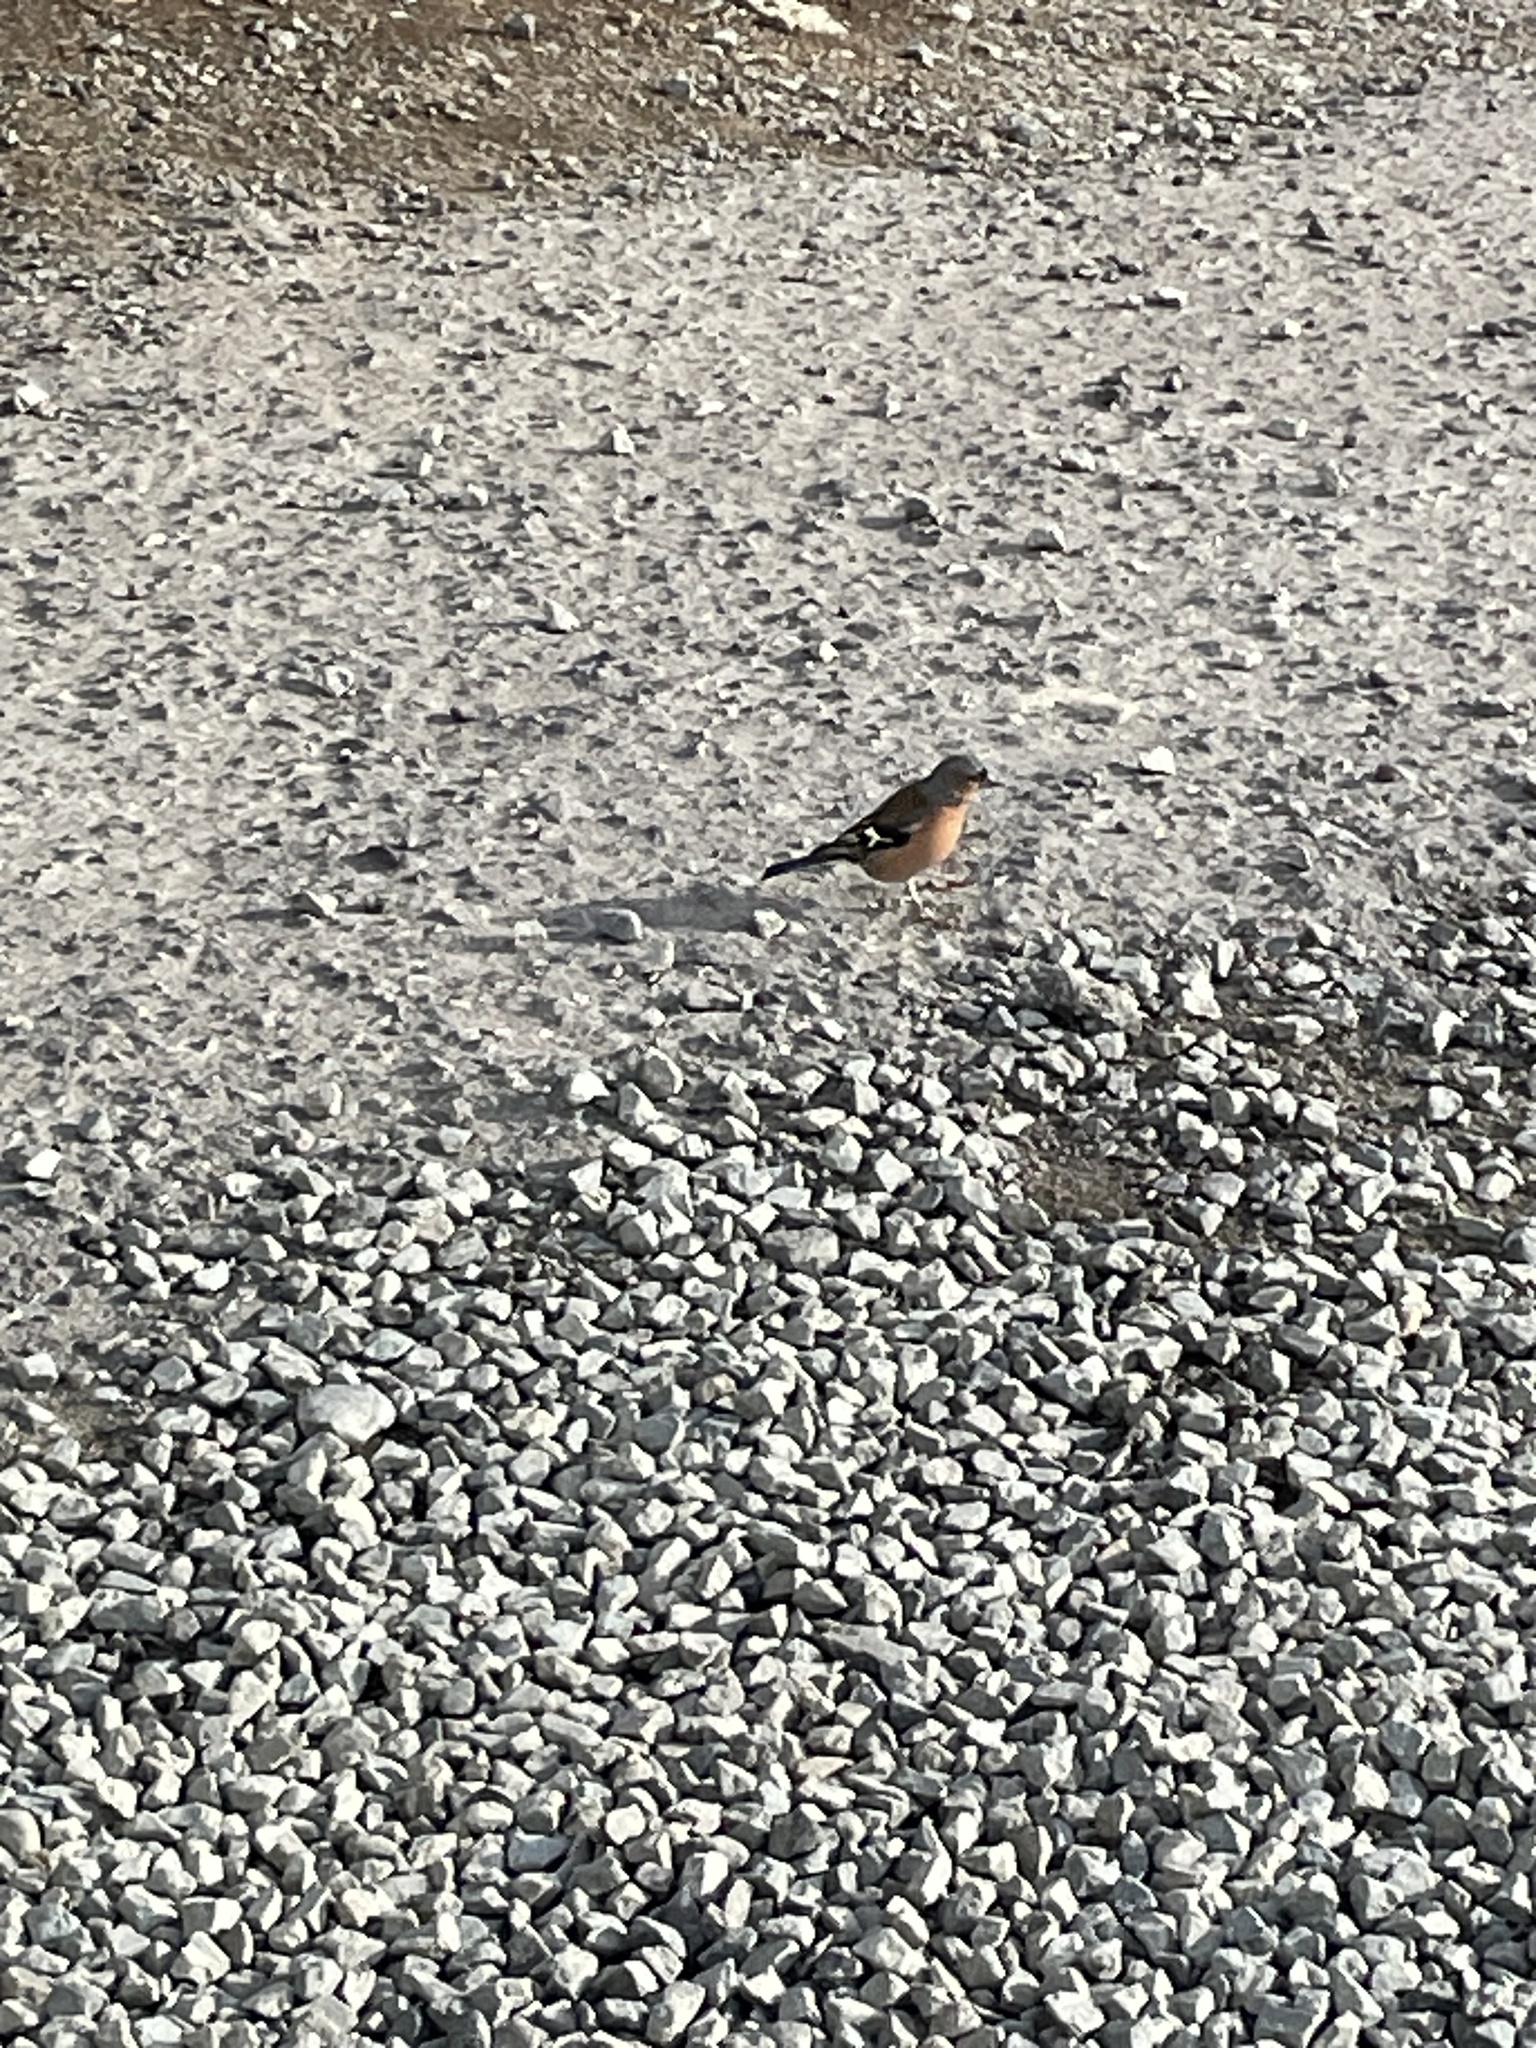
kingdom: Animalia
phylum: Chordata
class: Aves
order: Passeriformes
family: Fringillidae
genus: Fringilla
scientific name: Fringilla coelebs
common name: Common chaffinch
